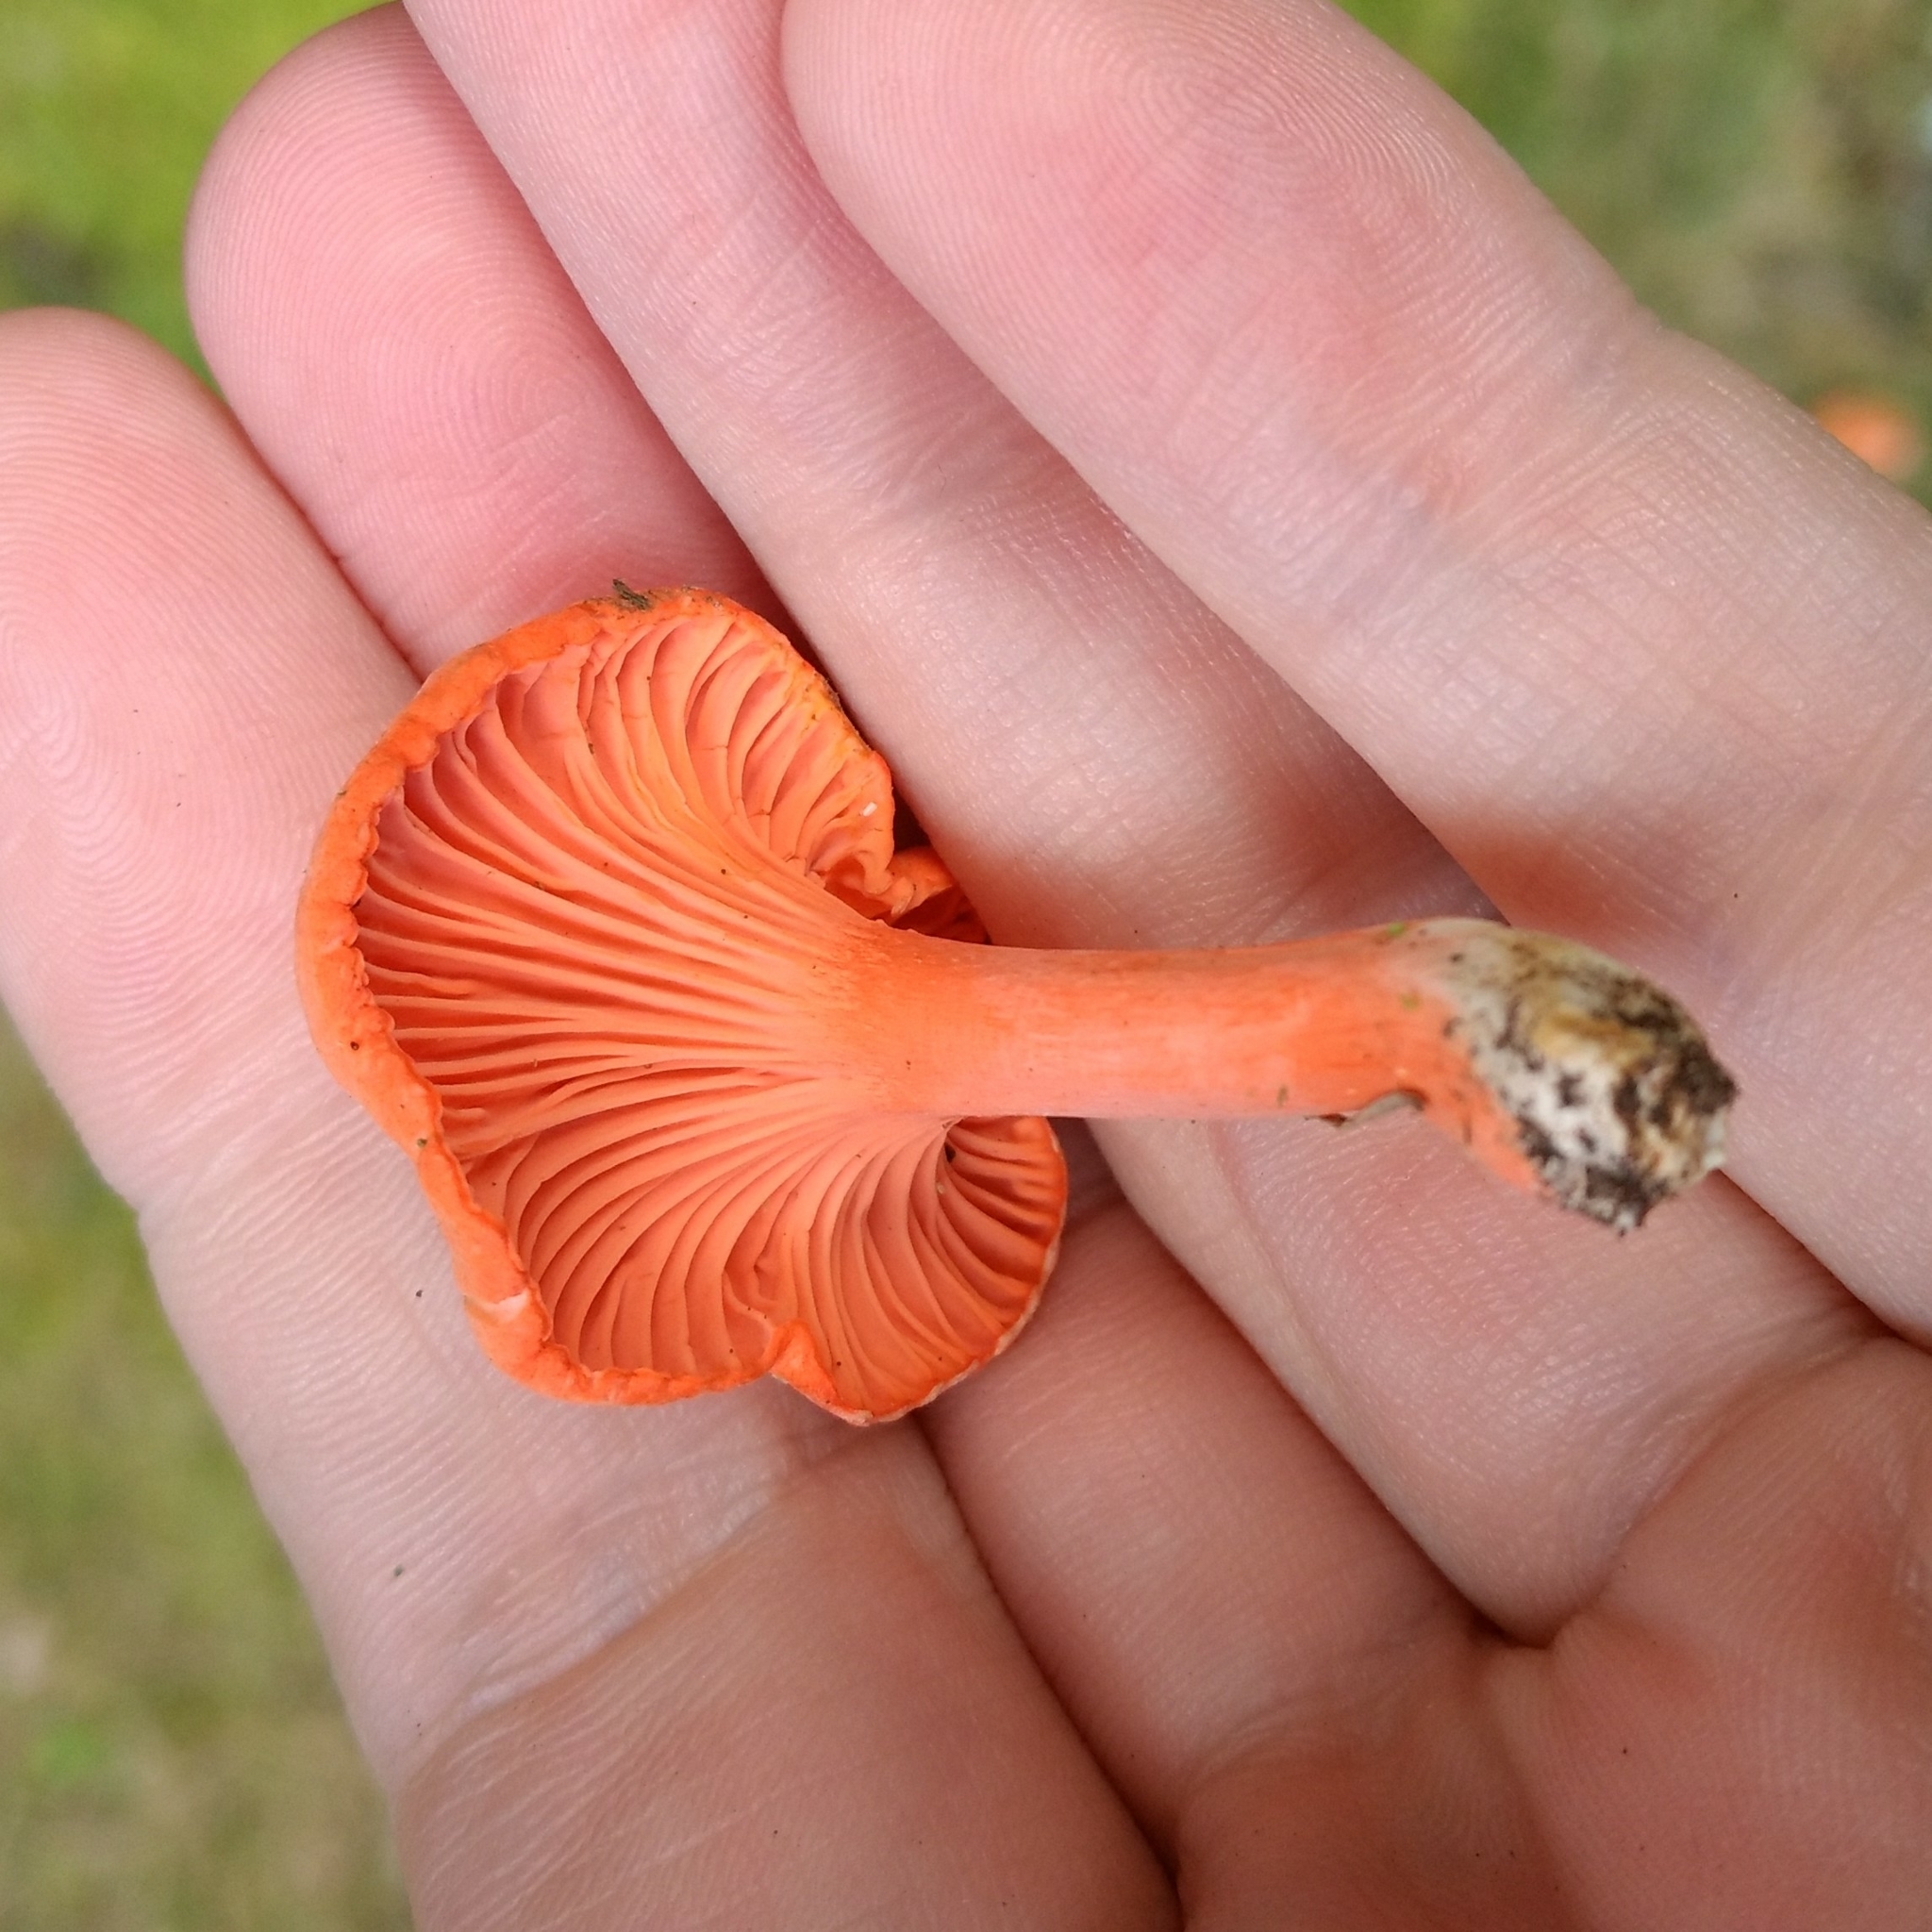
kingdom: Fungi
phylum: Basidiomycota
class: Agaricomycetes
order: Cantharellales
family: Hydnaceae
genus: Cantharellus
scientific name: Cantharellus cinnabarinus
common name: Cinnabar chanterelle
